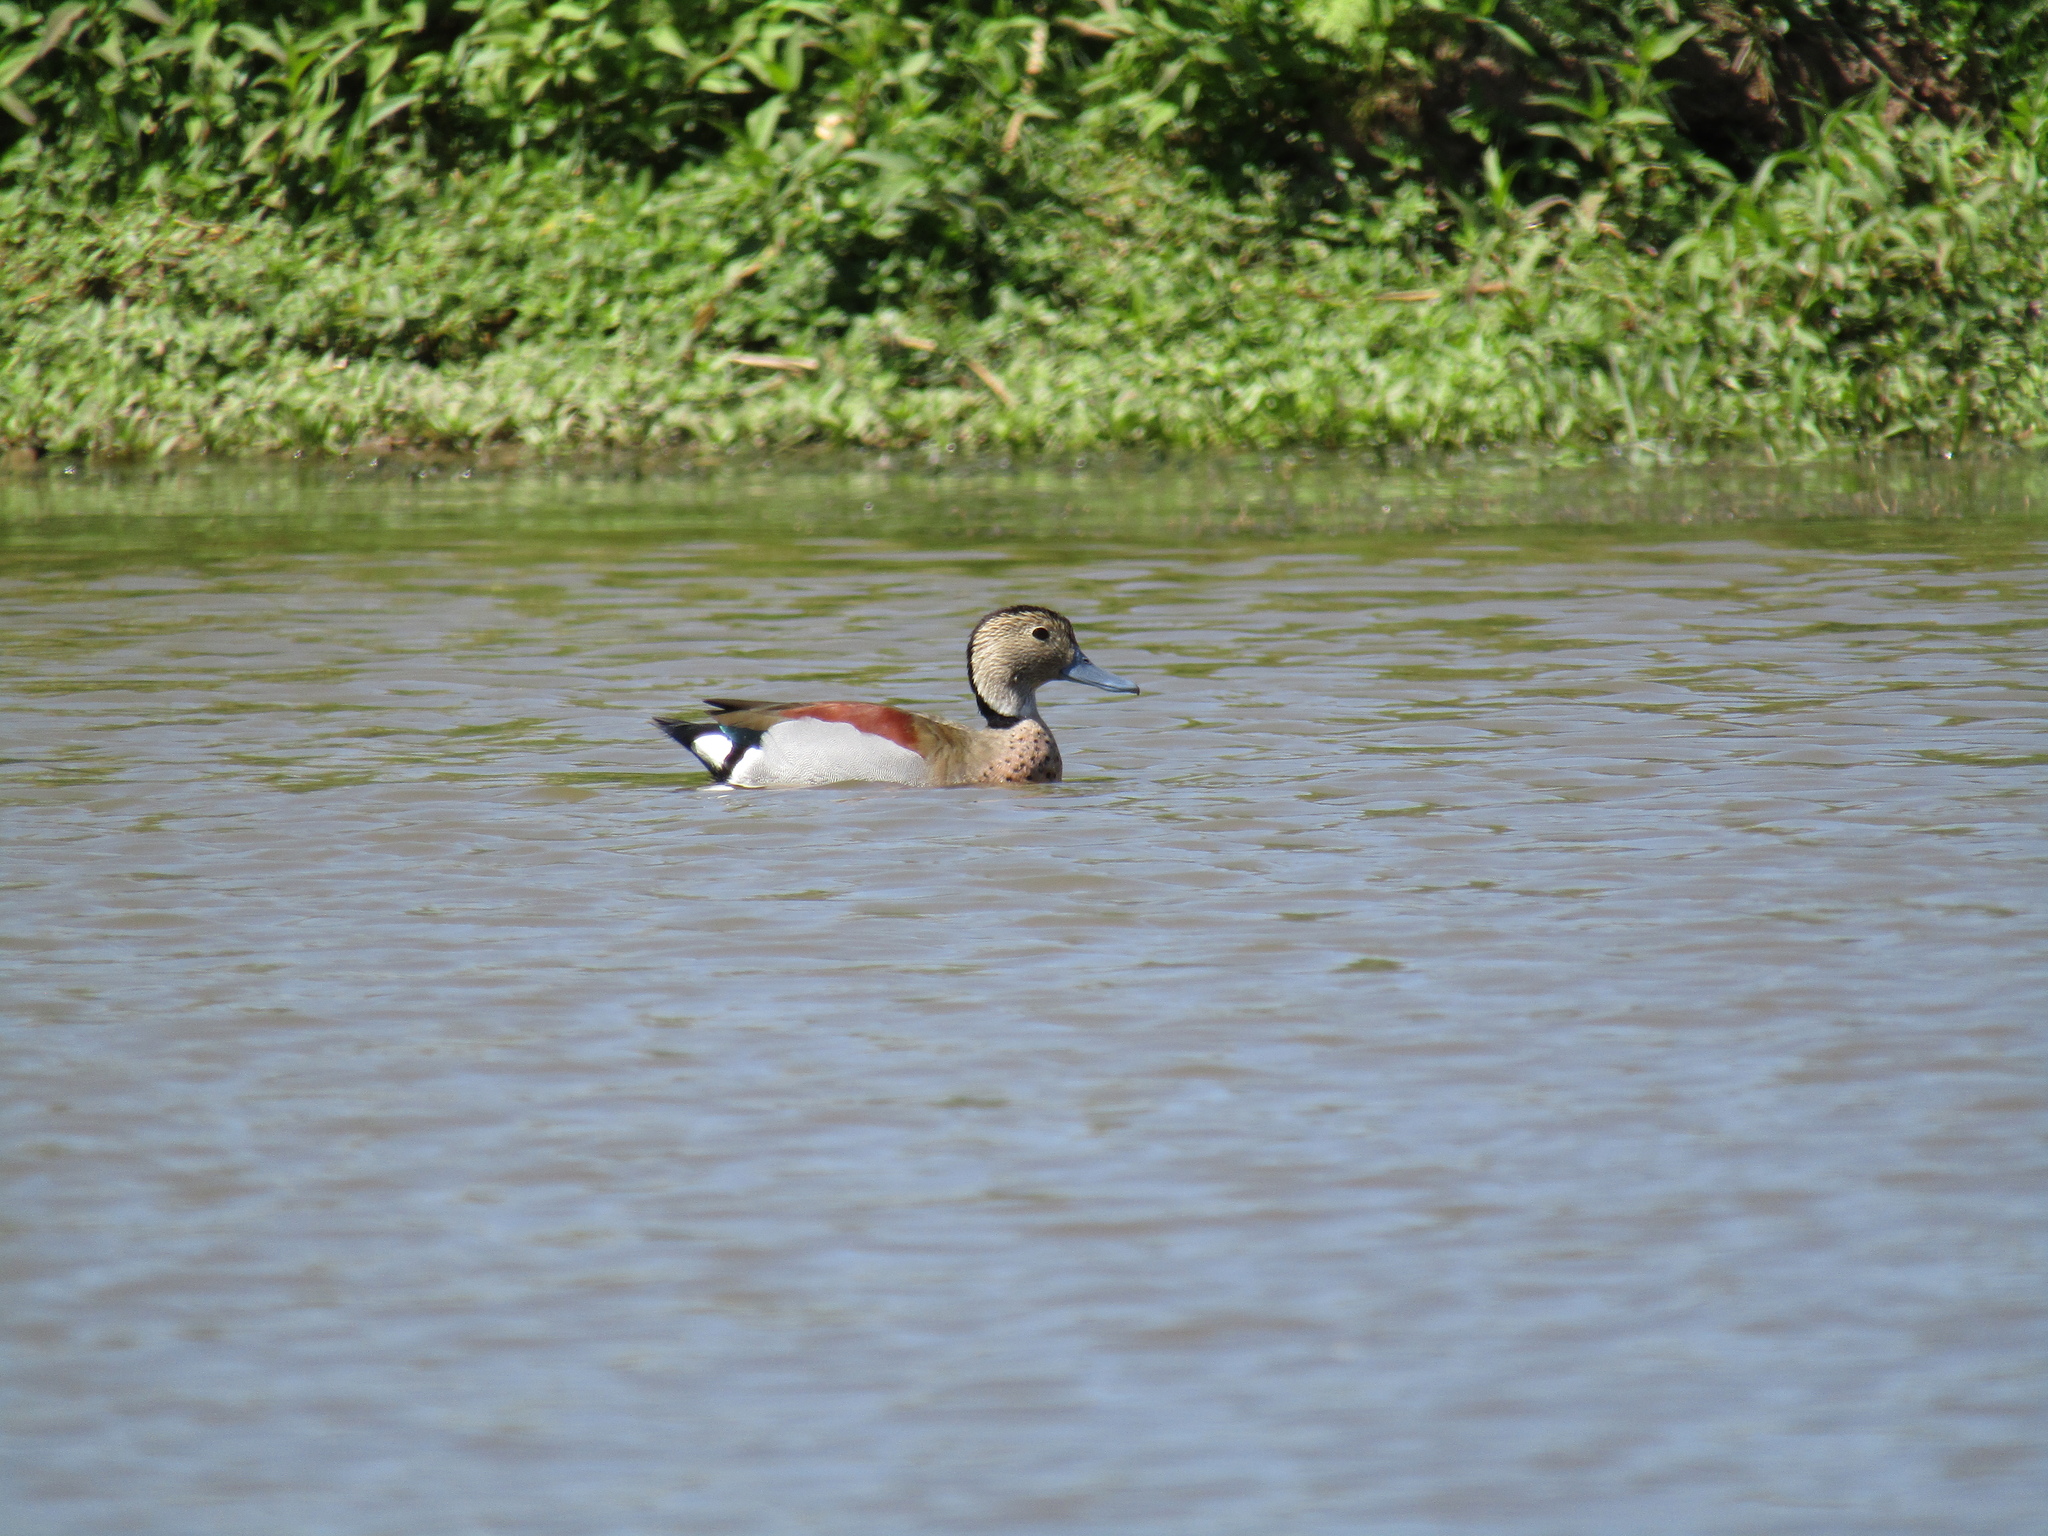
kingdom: Animalia
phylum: Chordata
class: Aves
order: Anseriformes
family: Anatidae
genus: Callonetta
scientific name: Callonetta leucophrys
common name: Ringed teal
